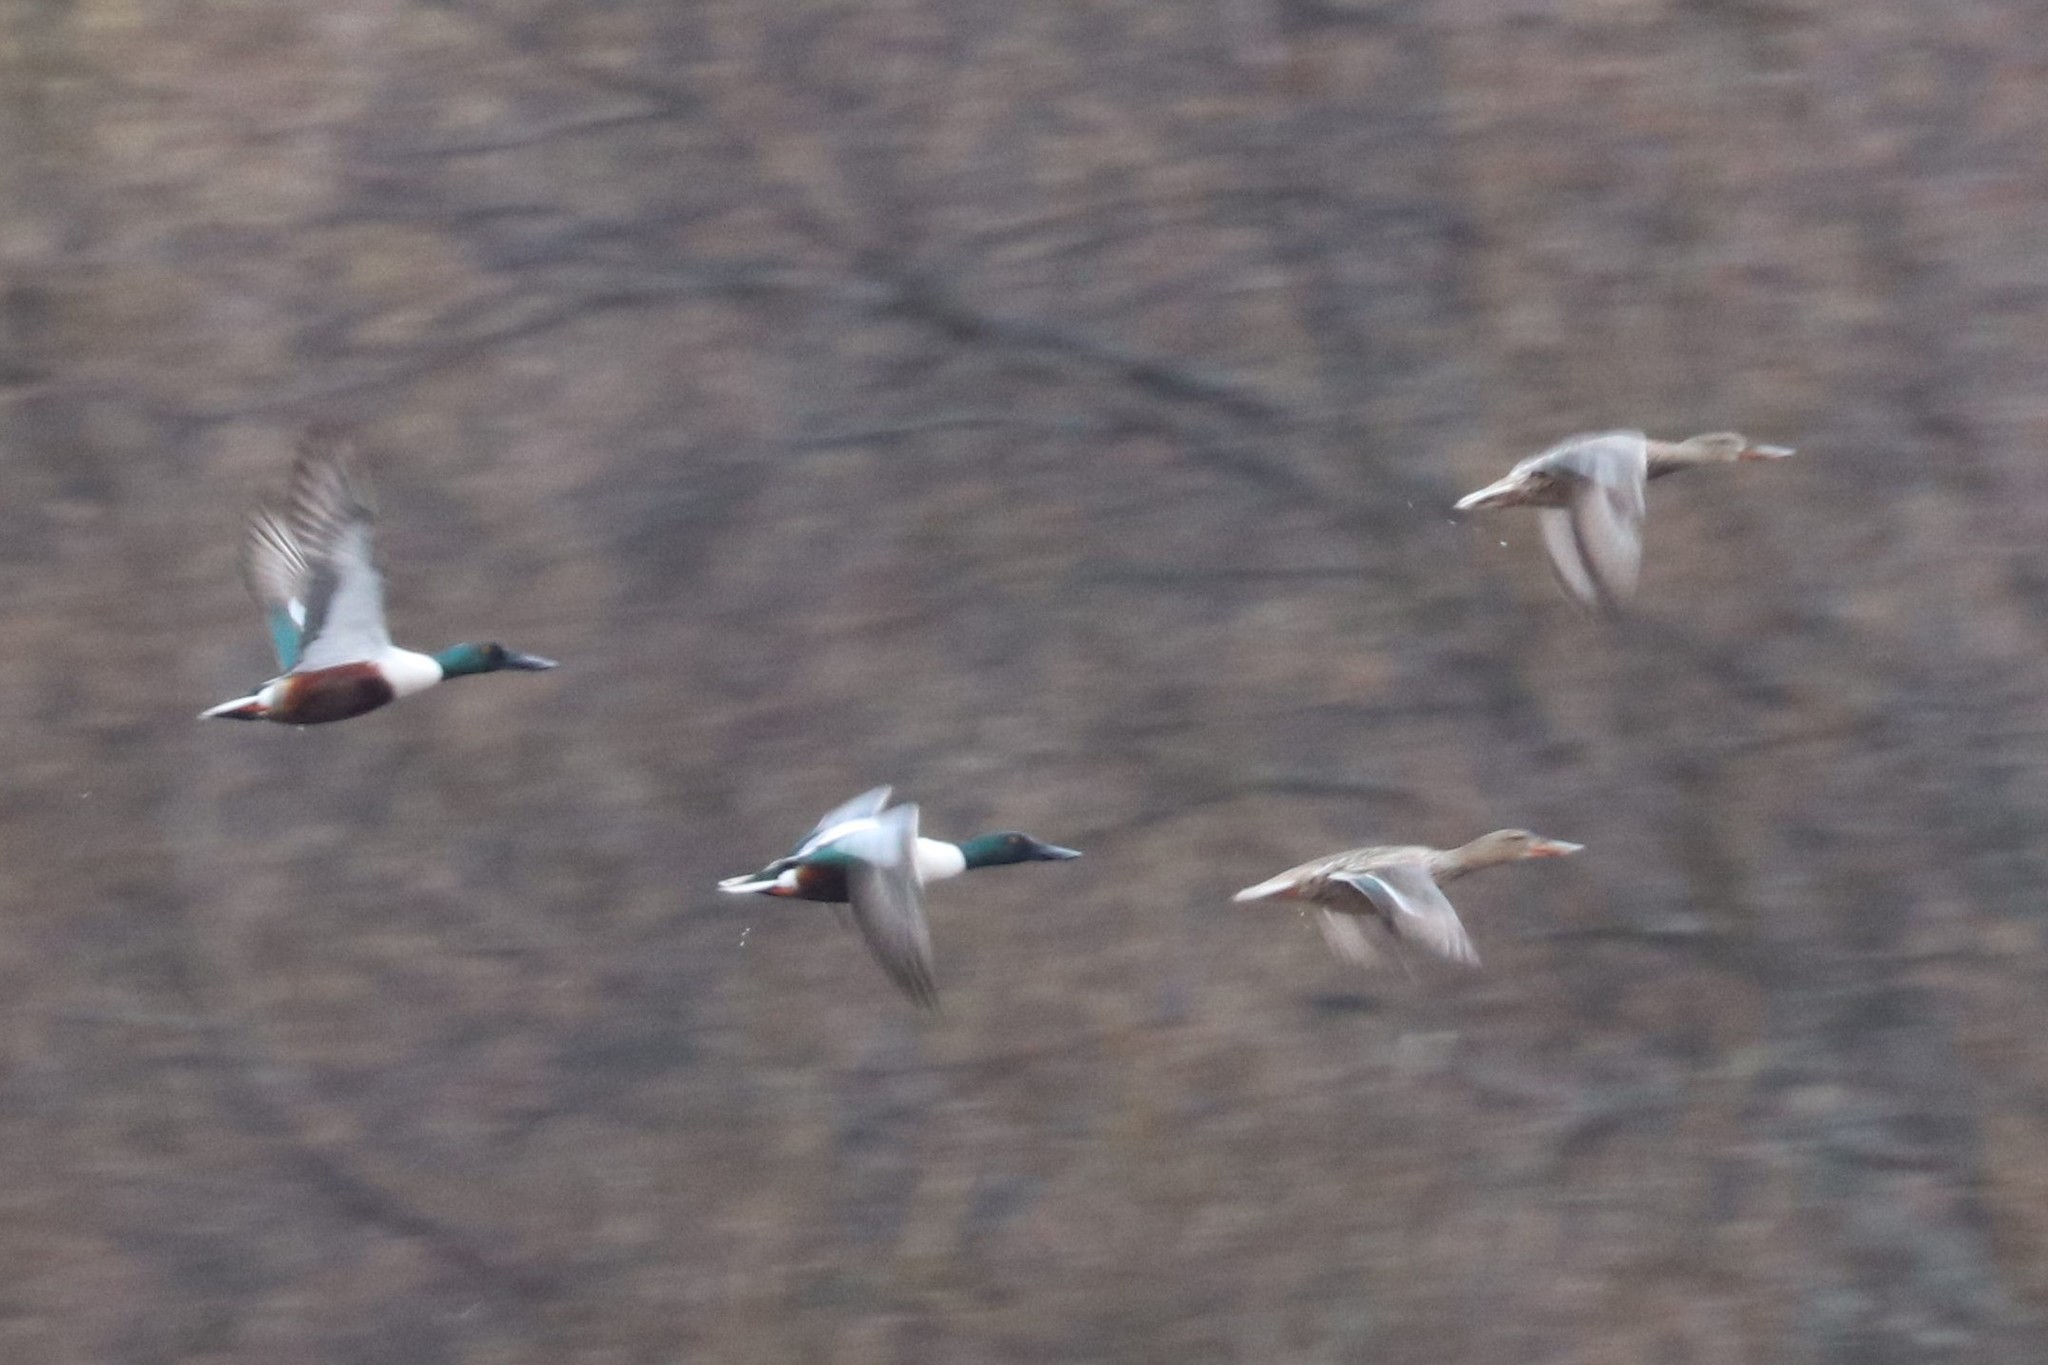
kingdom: Animalia
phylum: Chordata
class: Aves
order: Anseriformes
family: Anatidae
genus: Spatula
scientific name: Spatula clypeata
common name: Northern shoveler
